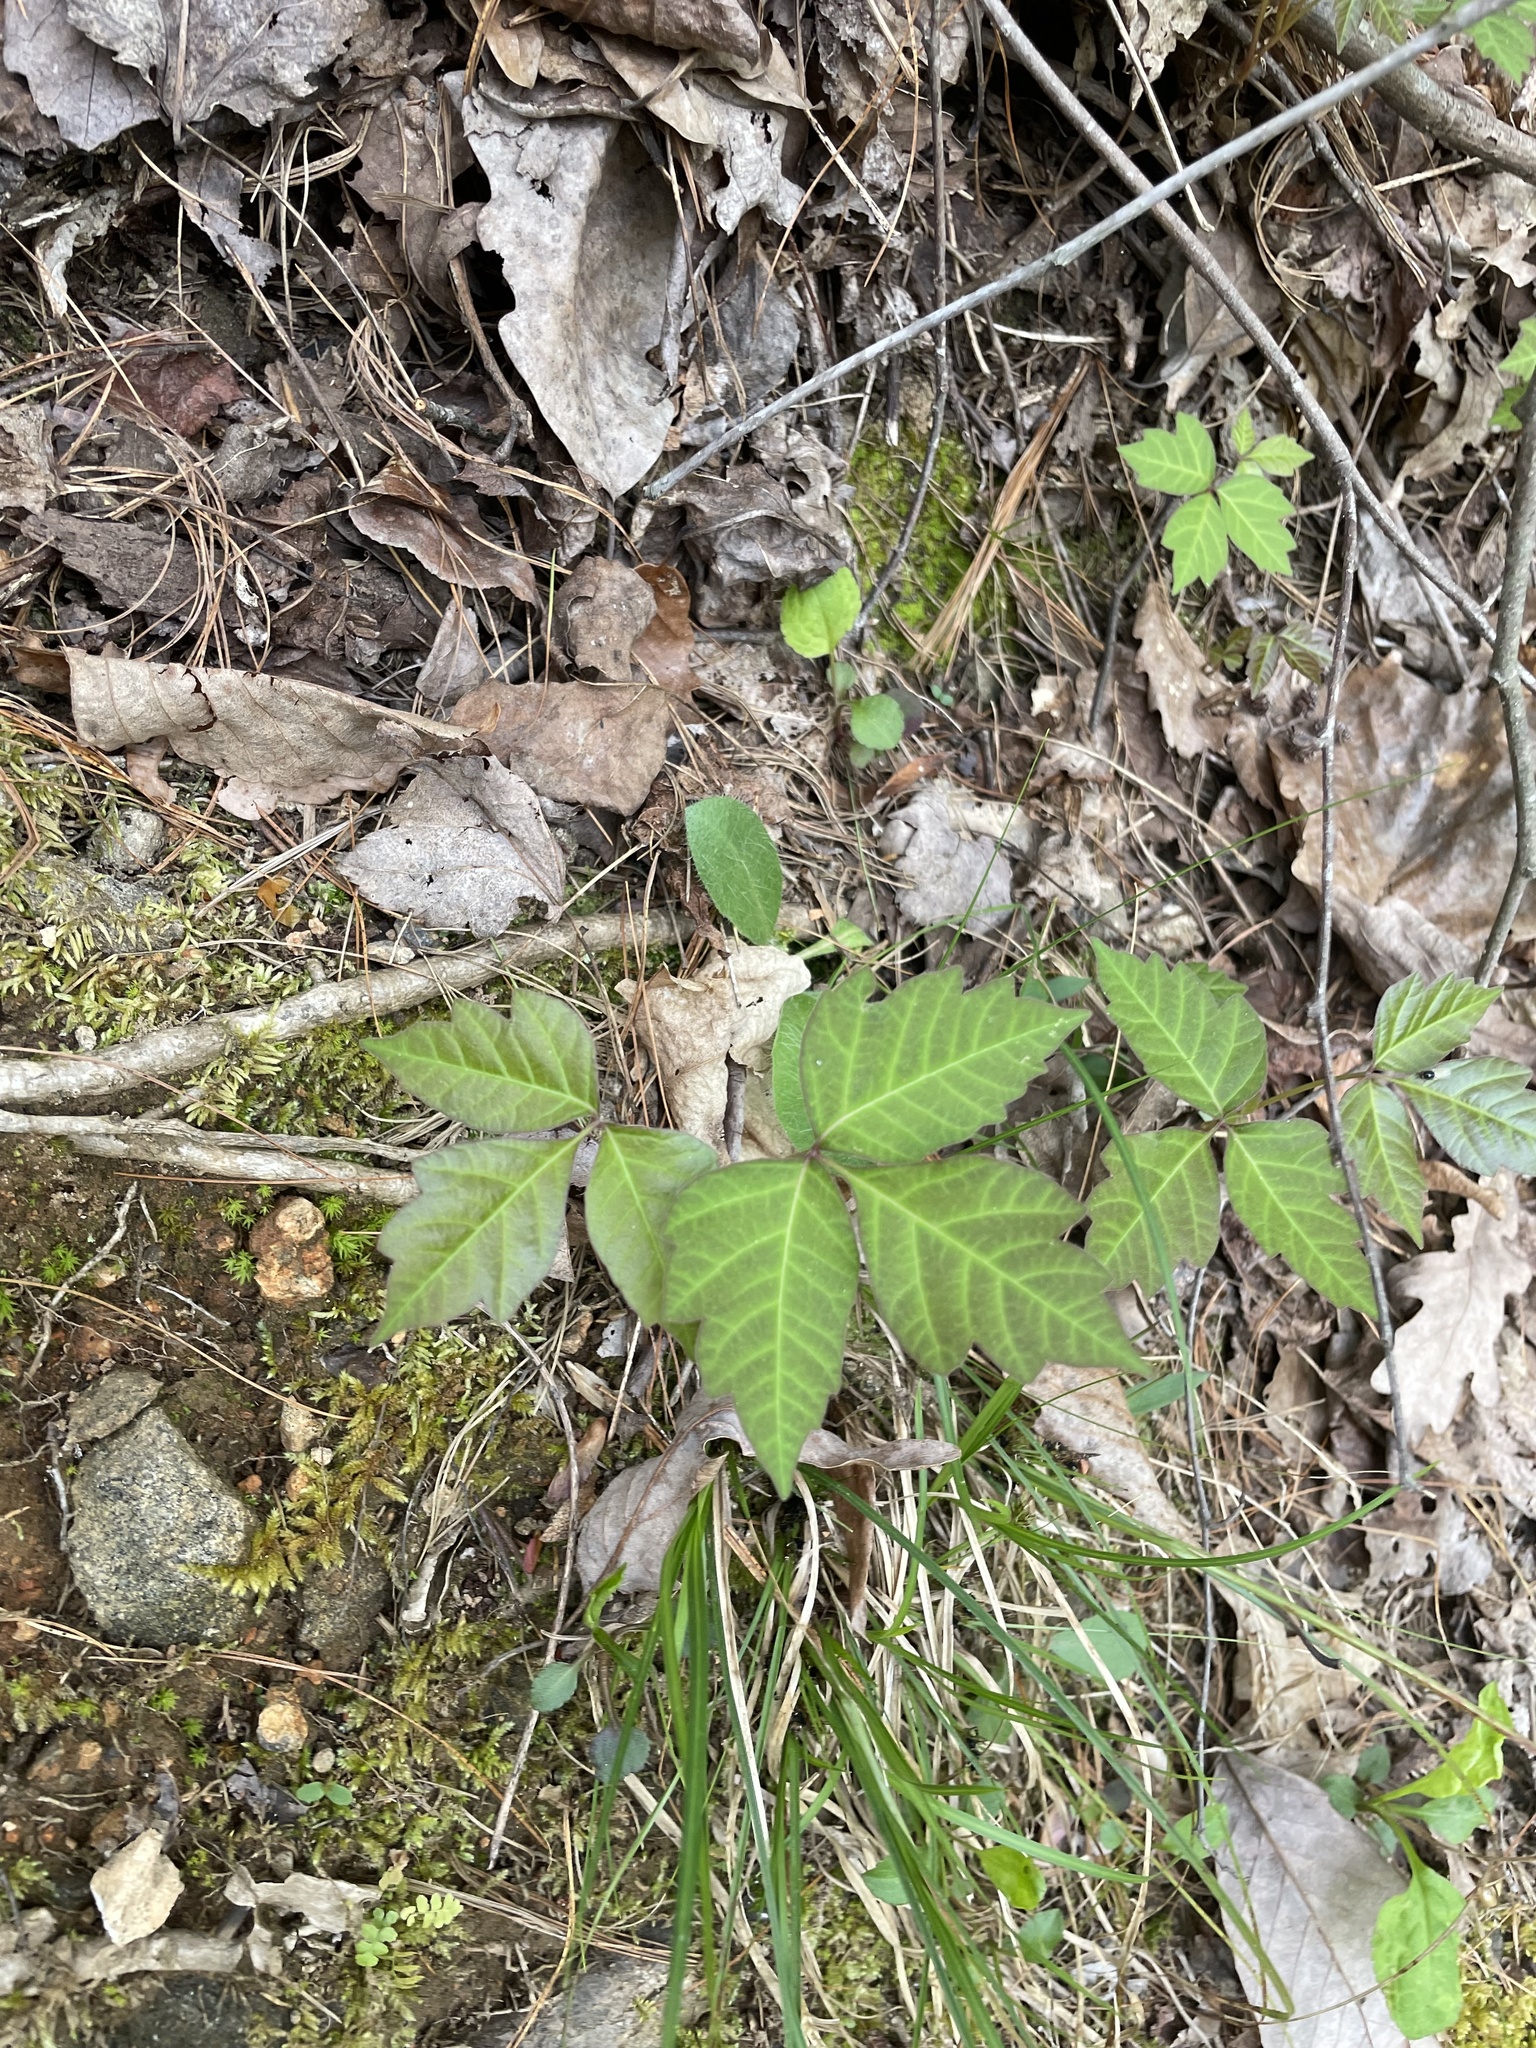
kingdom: Plantae
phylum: Tracheophyta
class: Magnoliopsida
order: Sapindales
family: Anacardiaceae
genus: Toxicodendron
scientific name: Toxicodendron radicans
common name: Poison ivy
